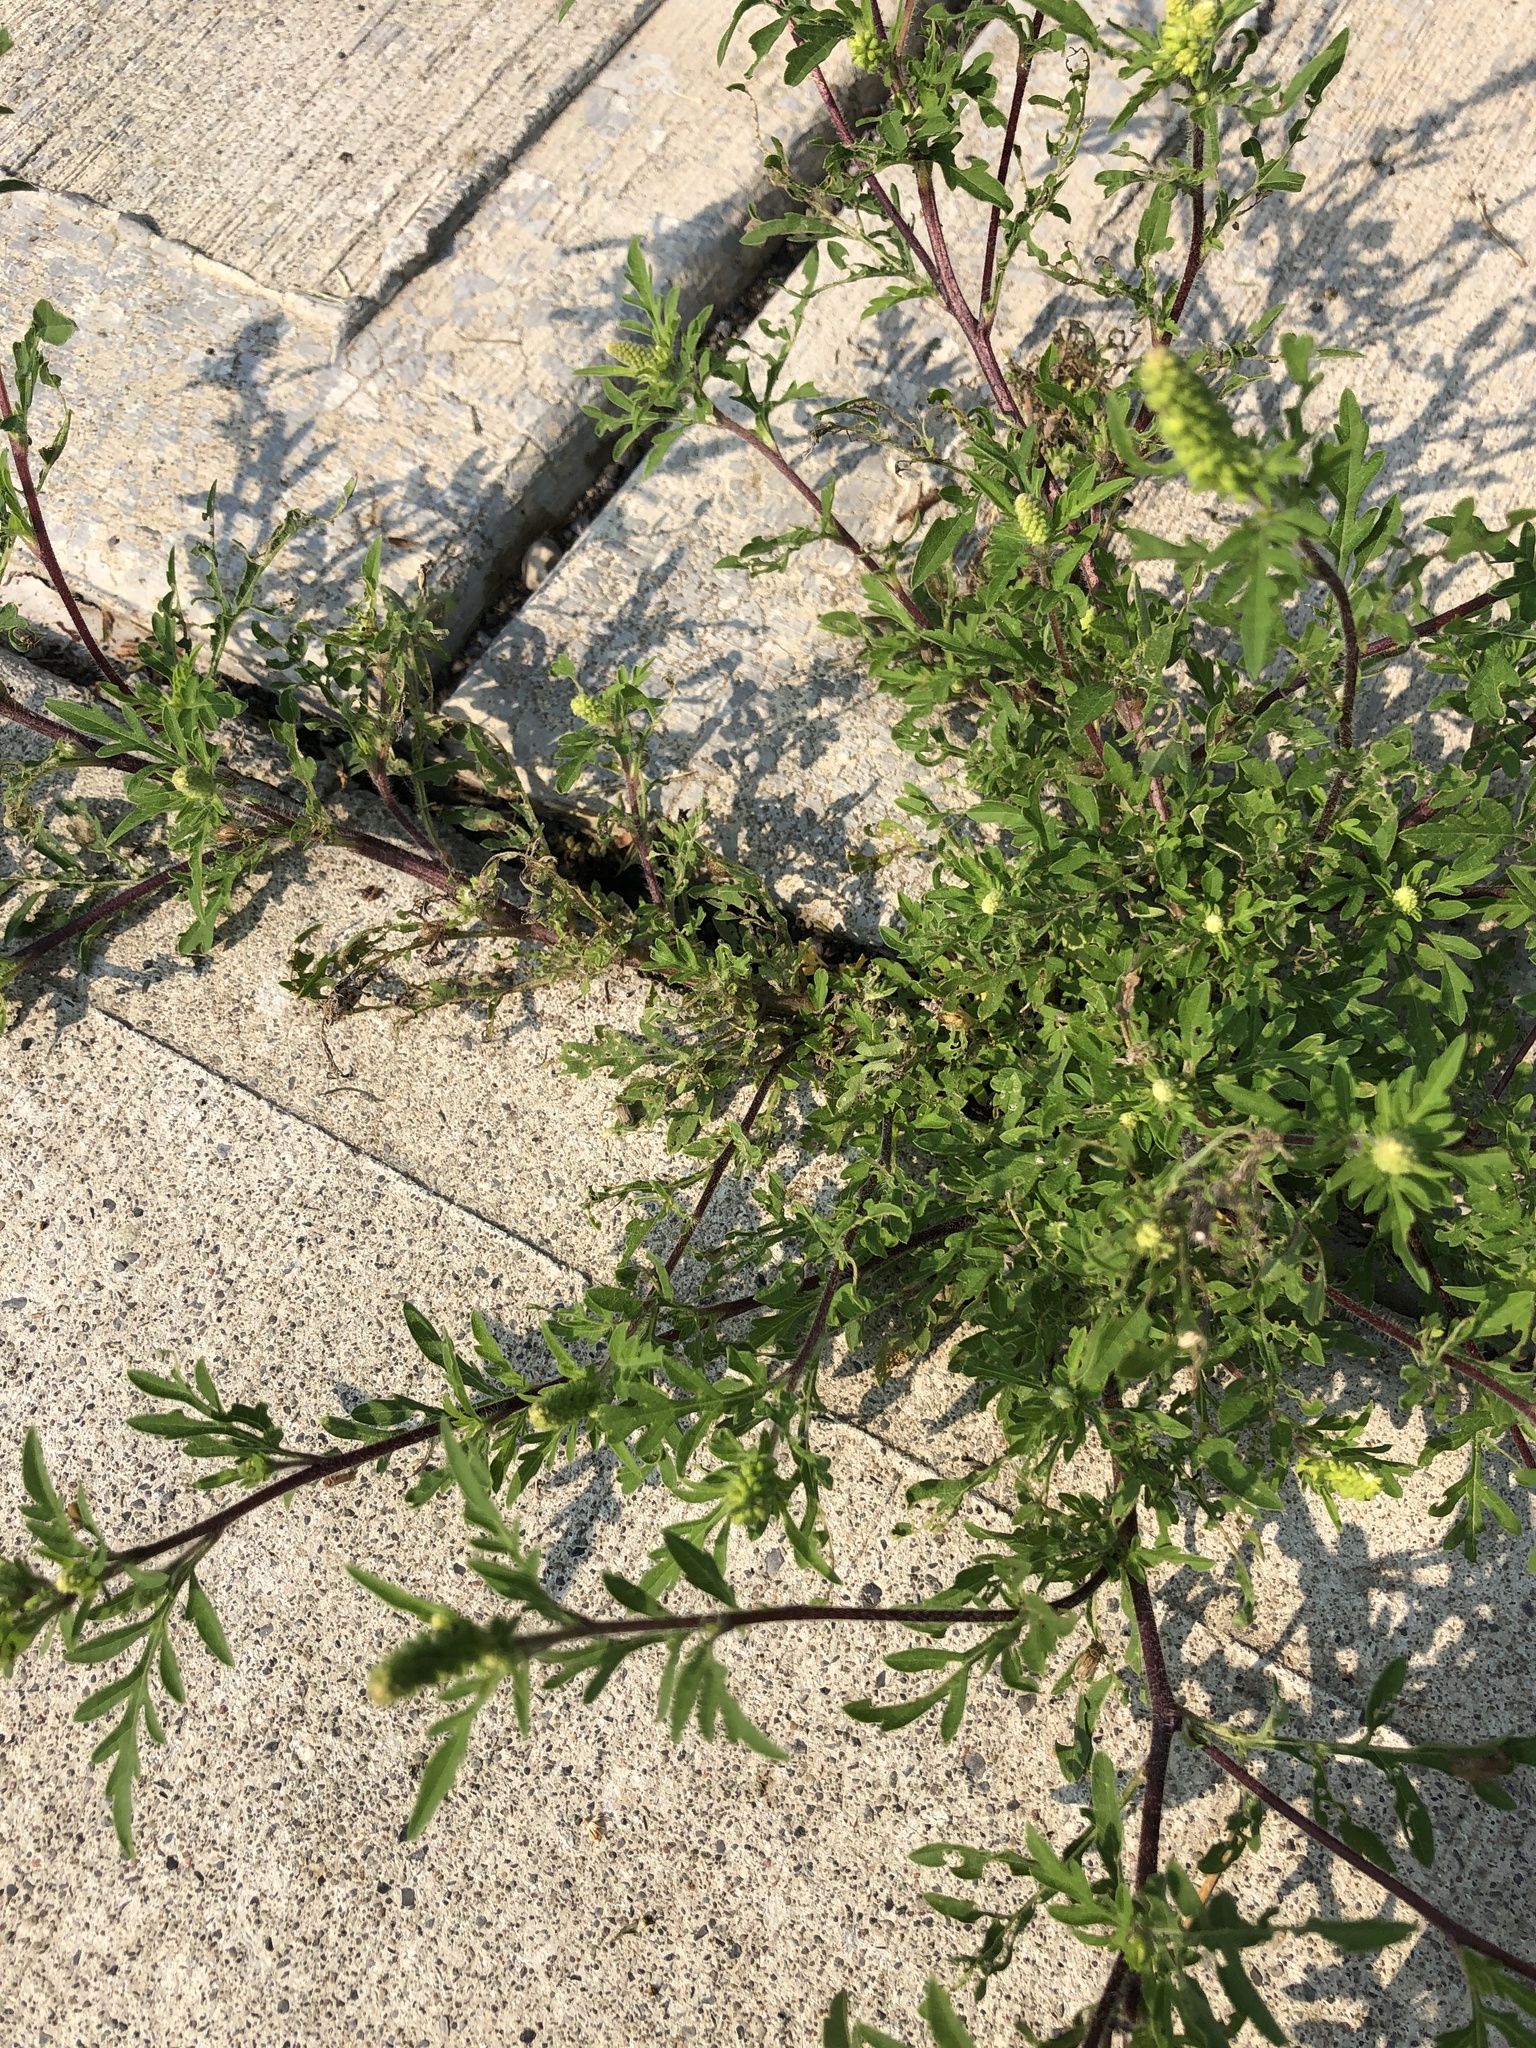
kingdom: Plantae
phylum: Tracheophyta
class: Magnoliopsida
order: Asterales
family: Asteraceae
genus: Ambrosia
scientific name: Ambrosia artemisiifolia
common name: Annual ragweed
